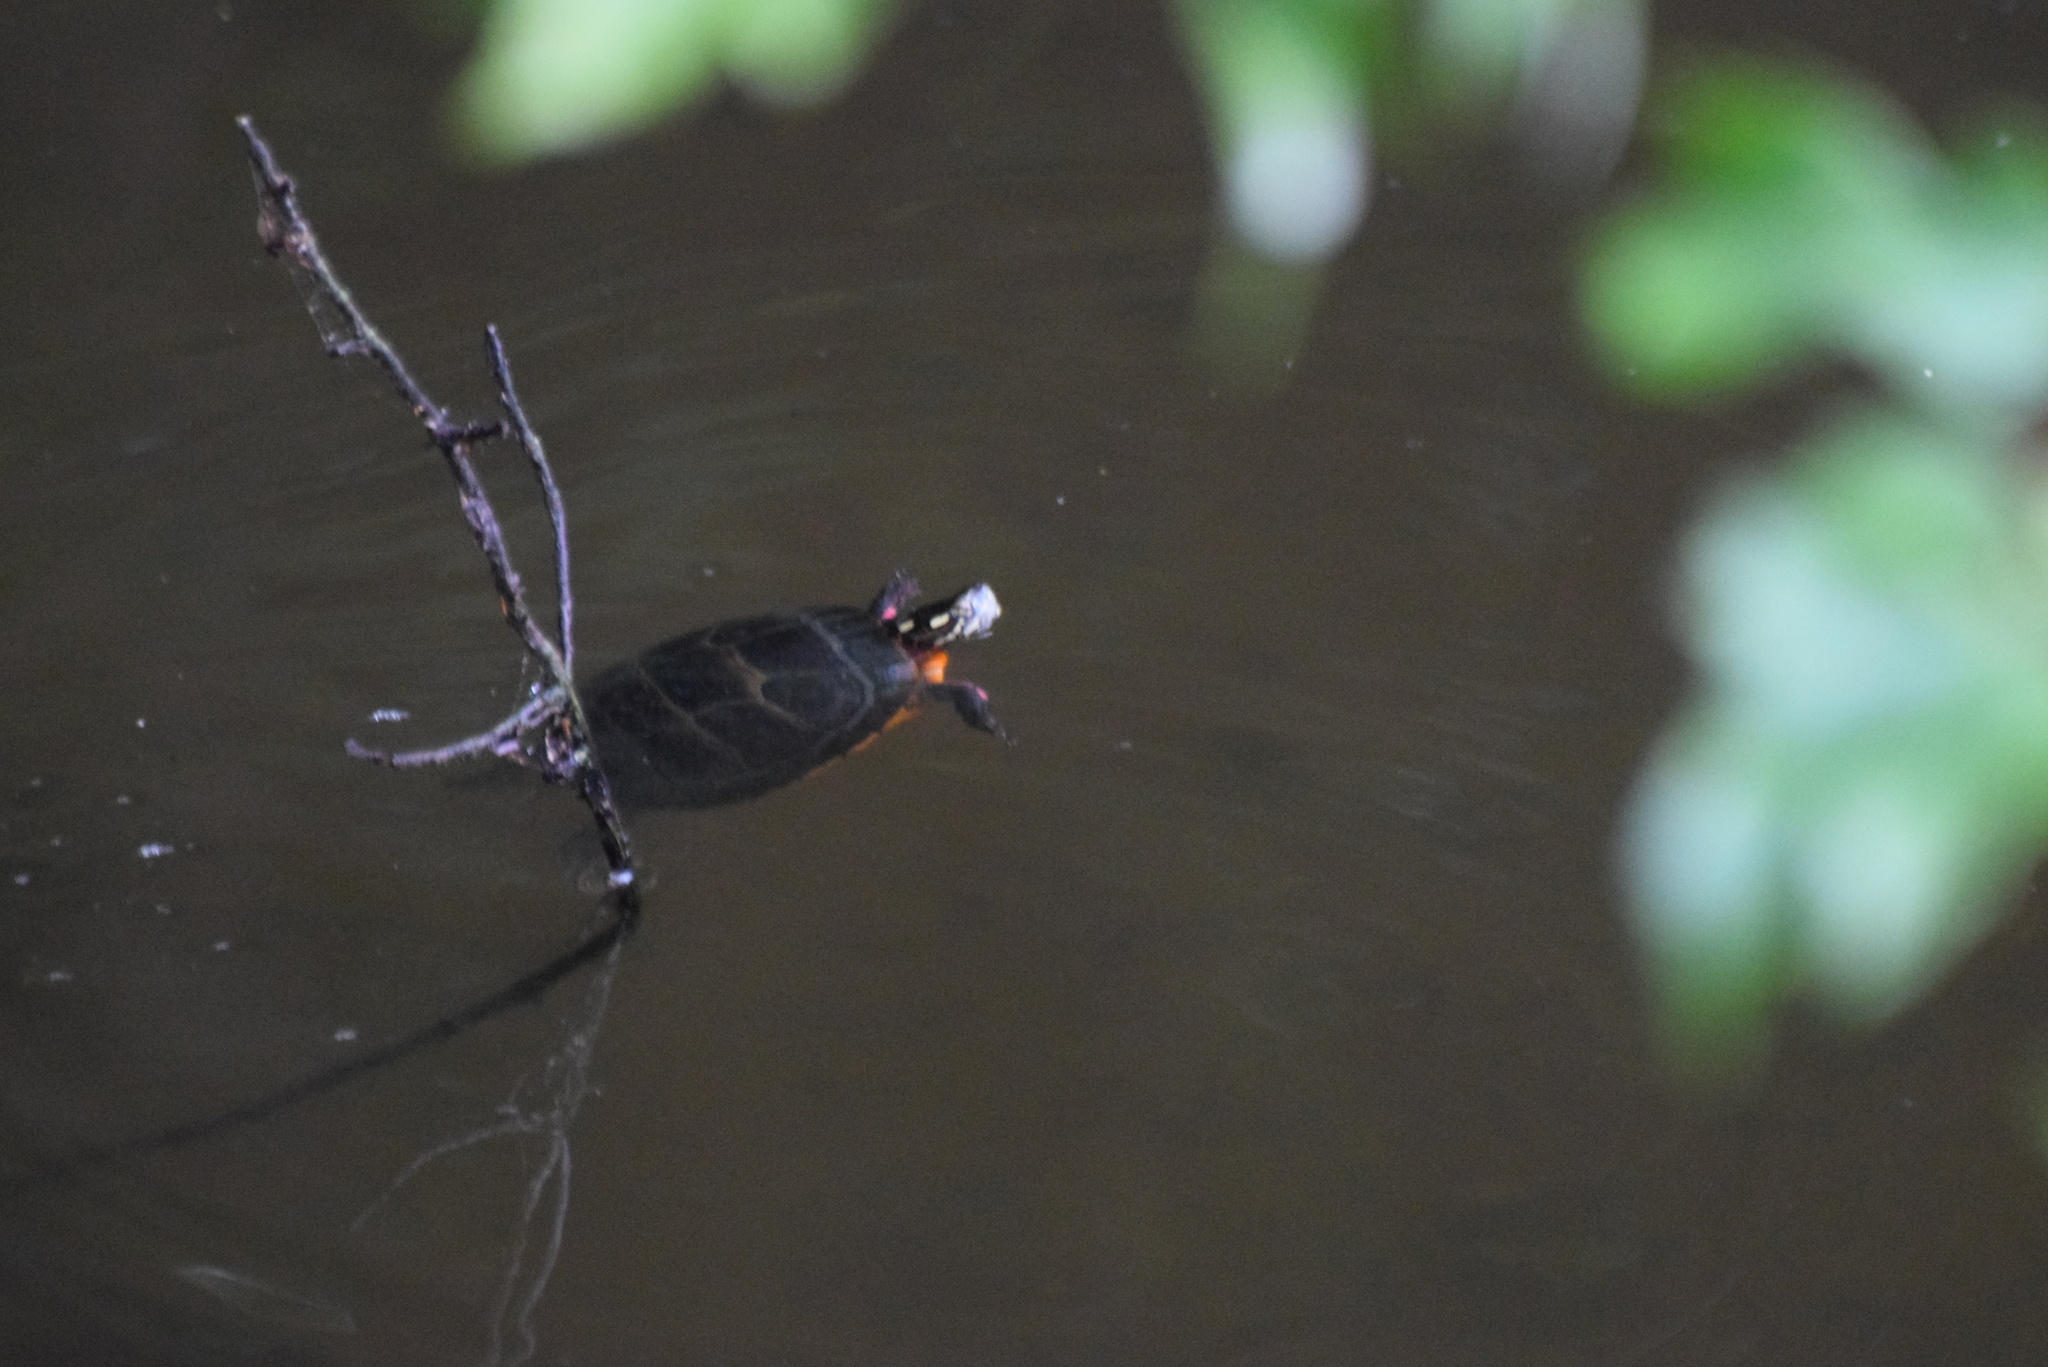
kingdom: Animalia
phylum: Chordata
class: Testudines
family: Emydidae
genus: Chrysemys
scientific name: Chrysemys picta
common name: Painted turtle
